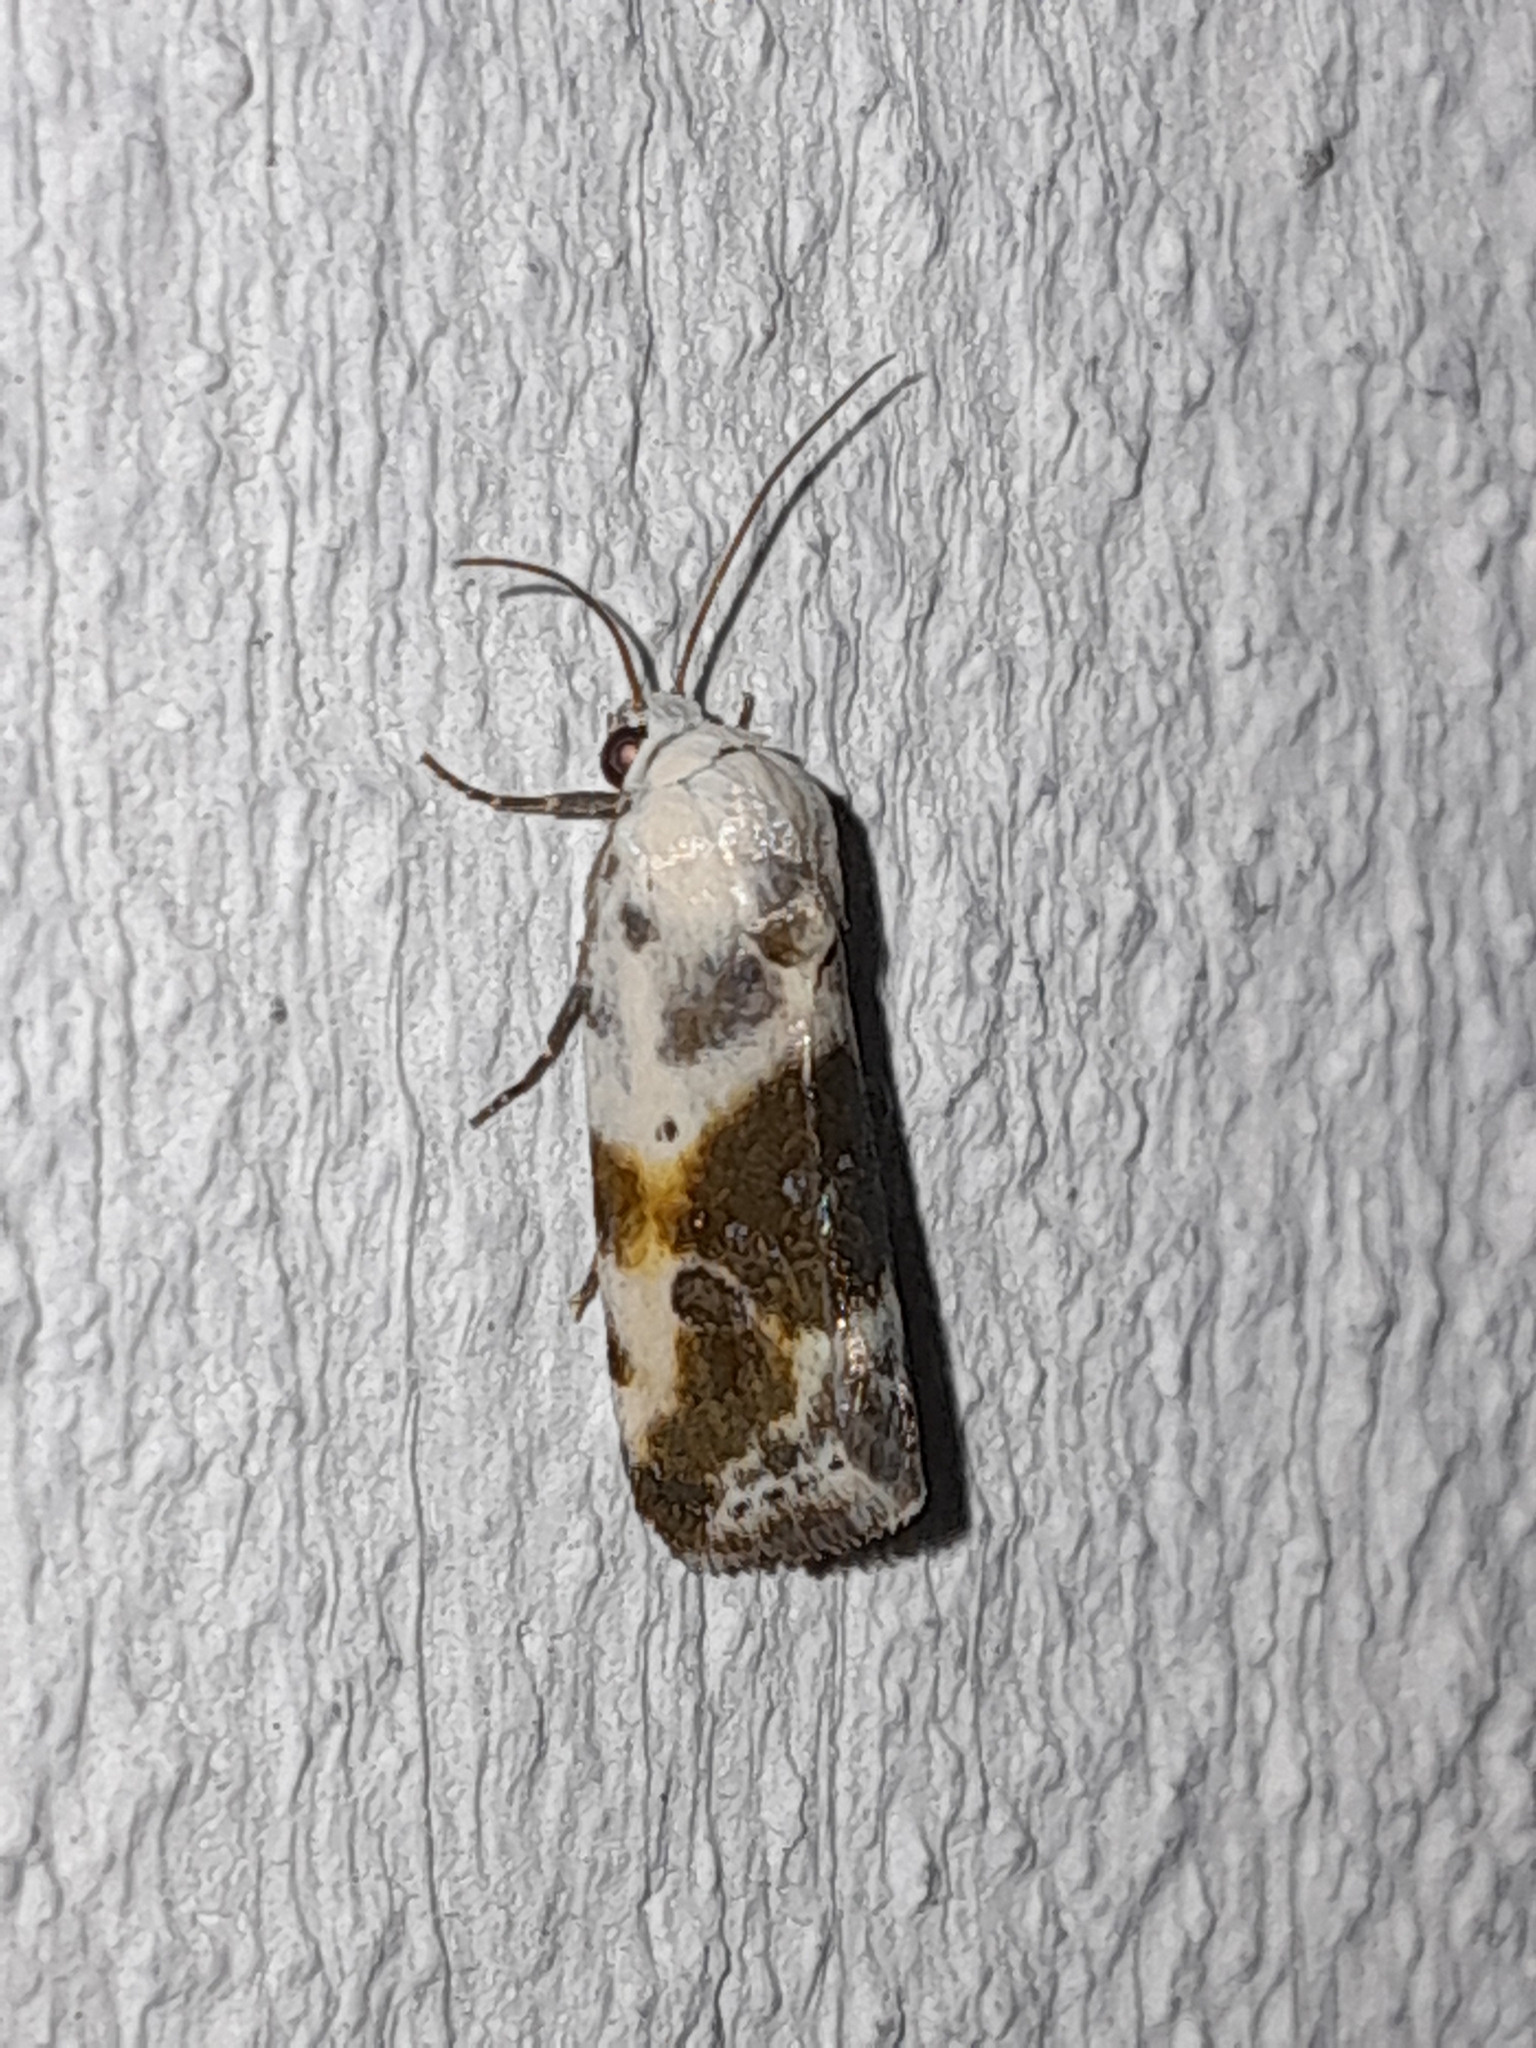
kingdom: Animalia
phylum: Arthropoda
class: Insecta
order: Lepidoptera
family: Noctuidae
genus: Acontia
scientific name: Acontia candefacta
